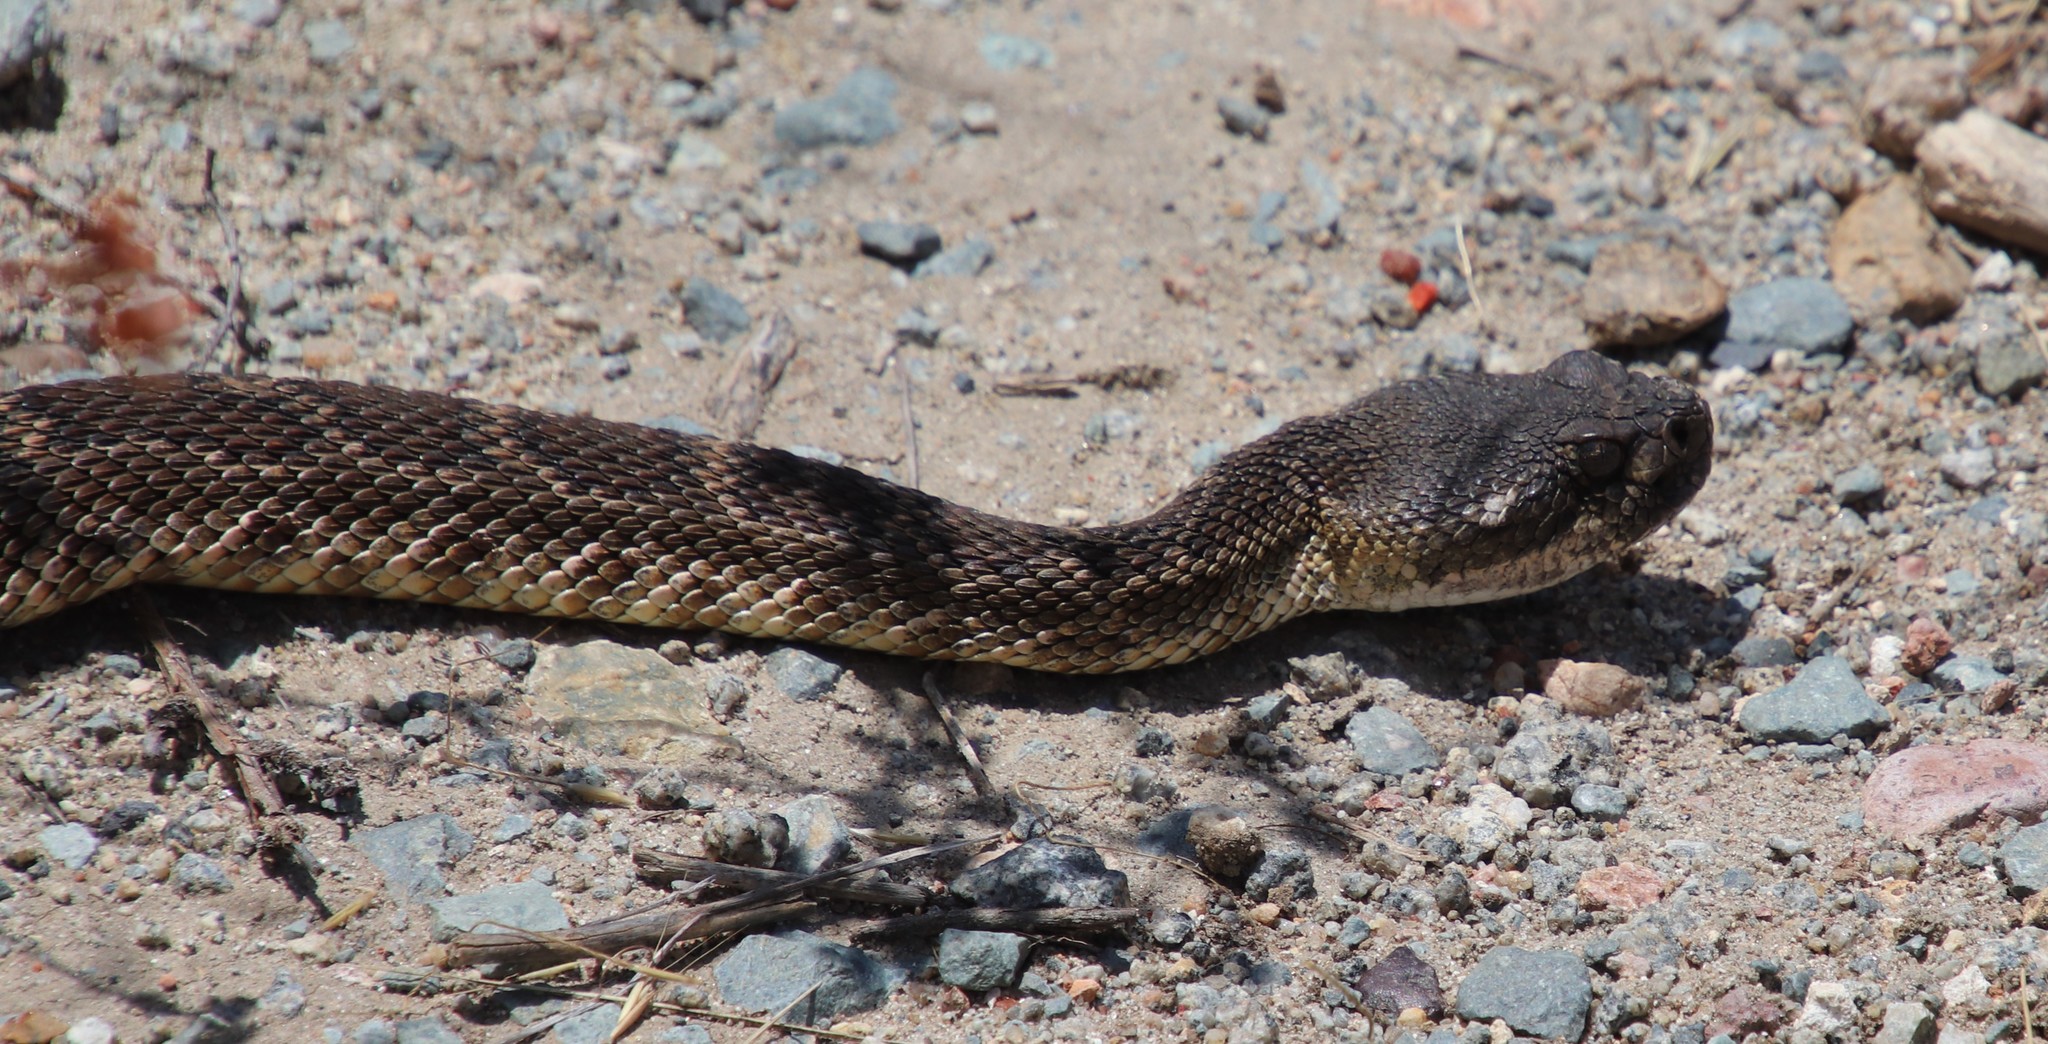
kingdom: Animalia
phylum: Chordata
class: Squamata
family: Viperidae
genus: Crotalus
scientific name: Crotalus oreganus
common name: Abyssus
